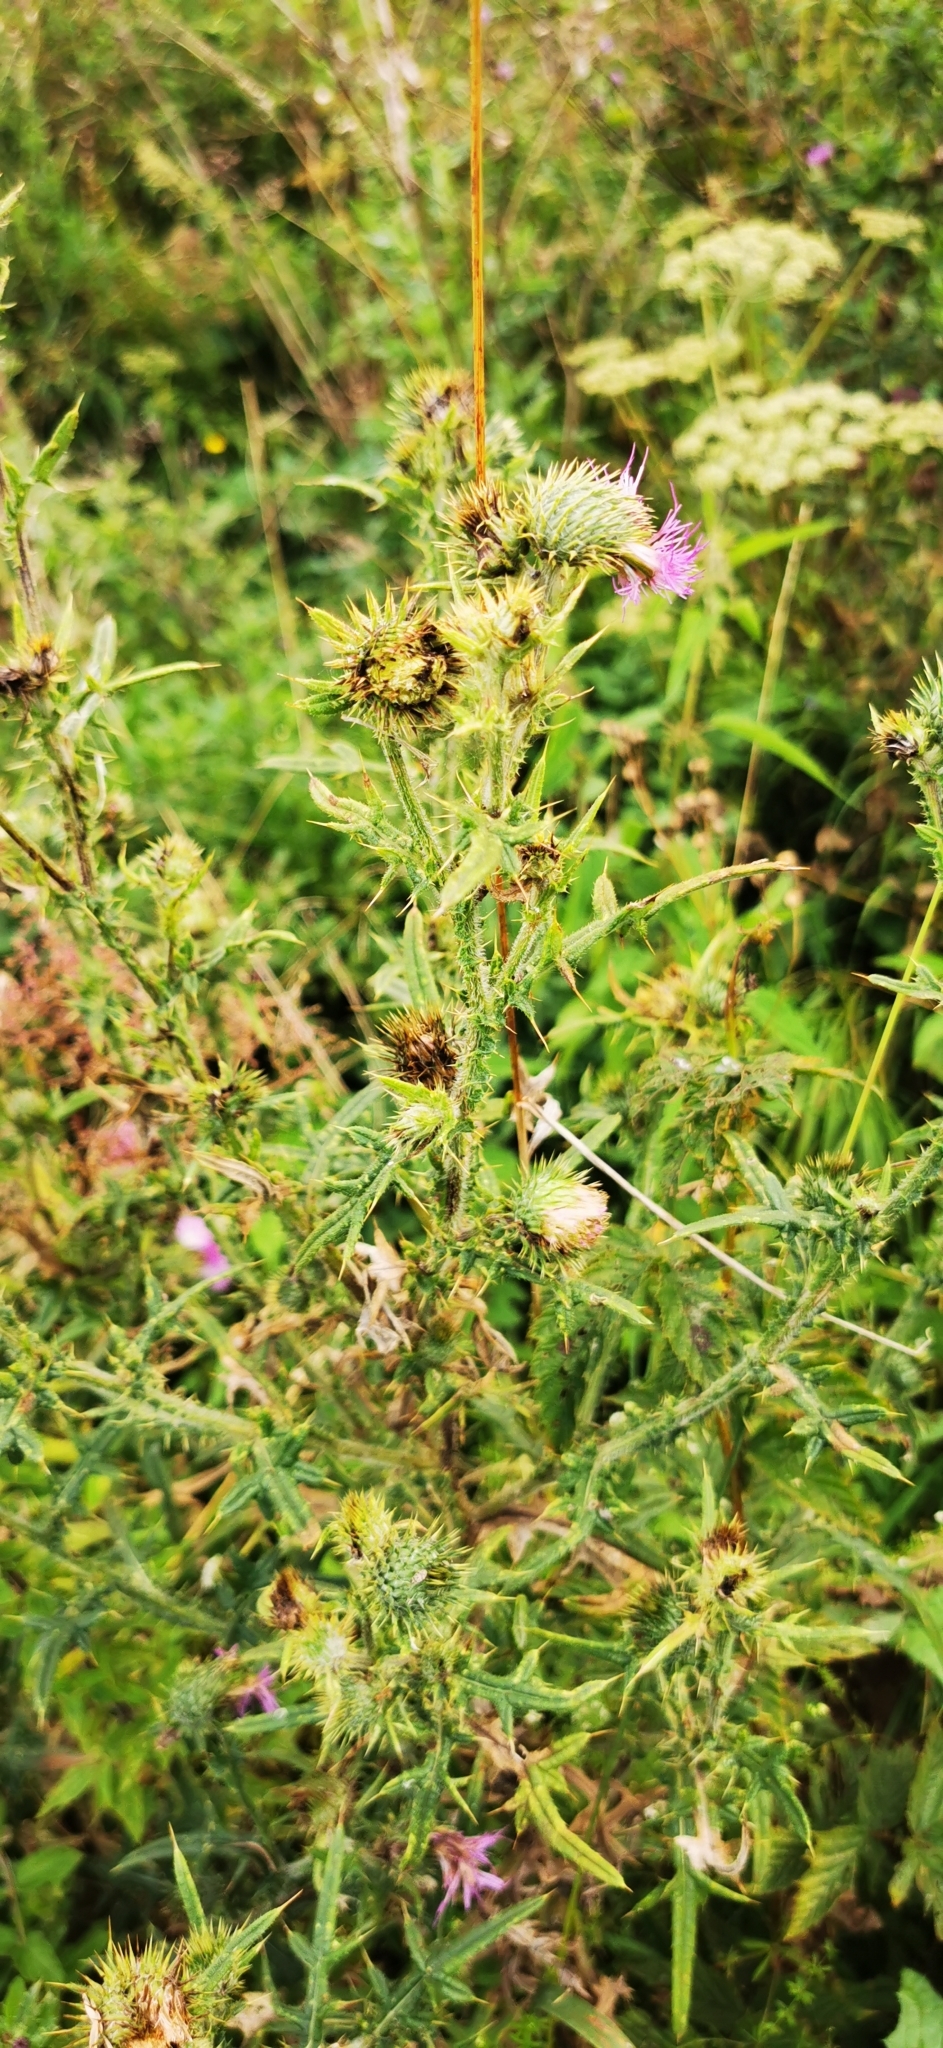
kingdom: Plantae
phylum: Tracheophyta
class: Magnoliopsida
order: Asterales
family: Asteraceae
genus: Cirsium
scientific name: Cirsium vulgare
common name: Bull thistle
